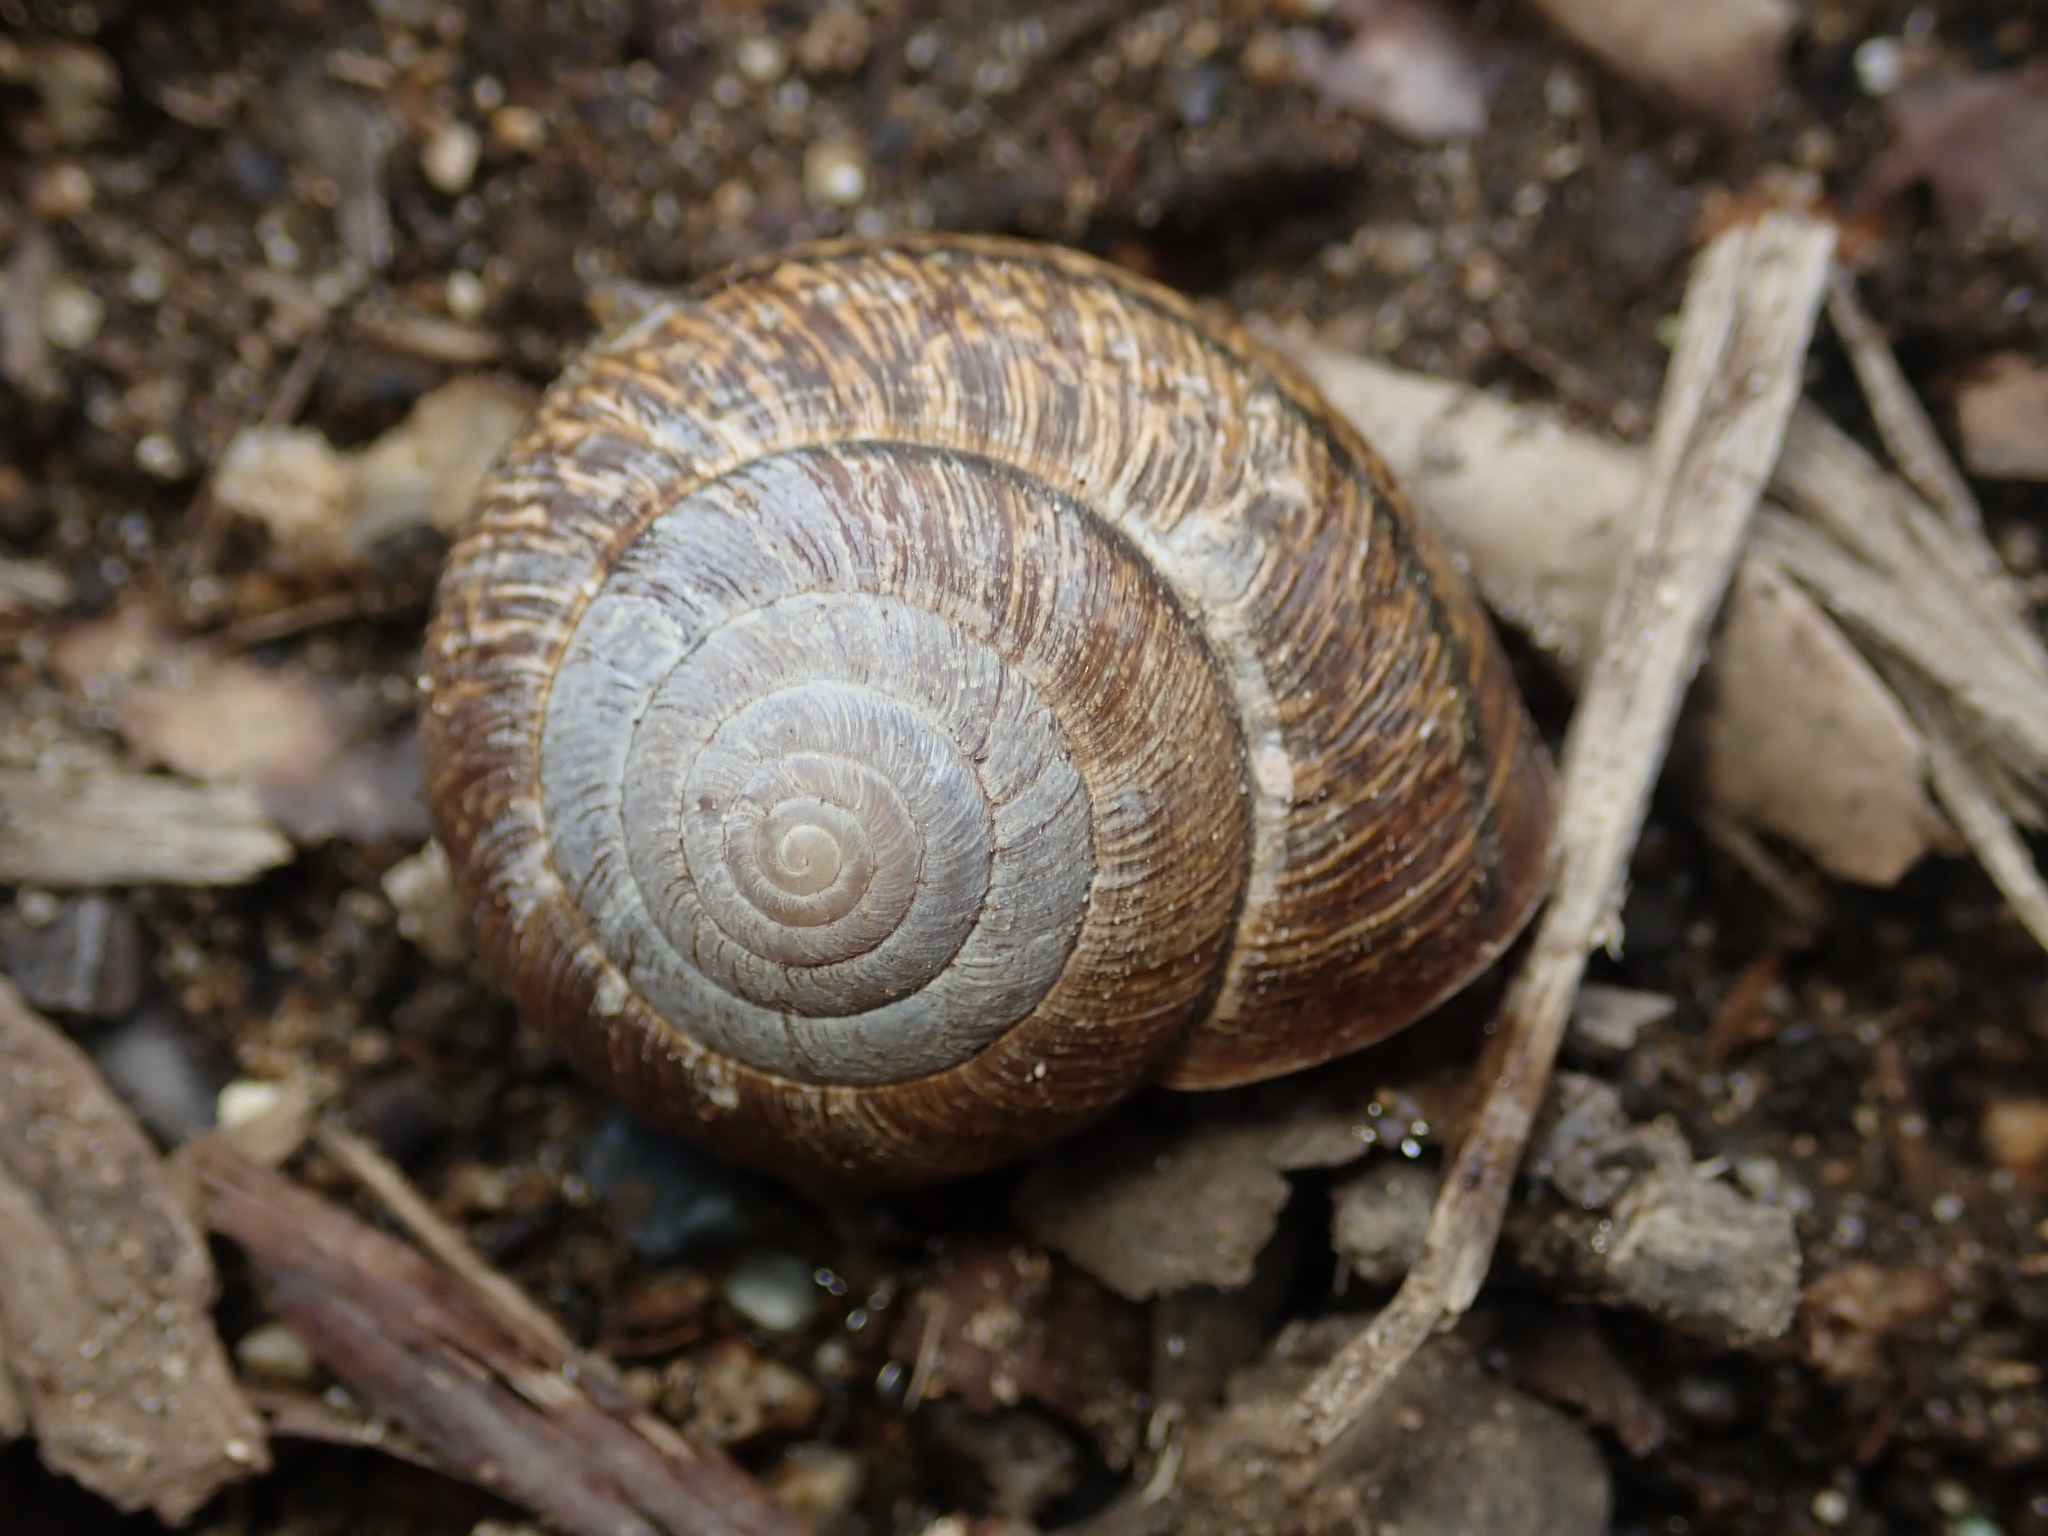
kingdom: Animalia
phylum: Mollusca
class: Gastropoda
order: Stylommatophora
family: Xanthonychidae
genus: Helminthoglypta
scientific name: Helminthoglypta arrosa
